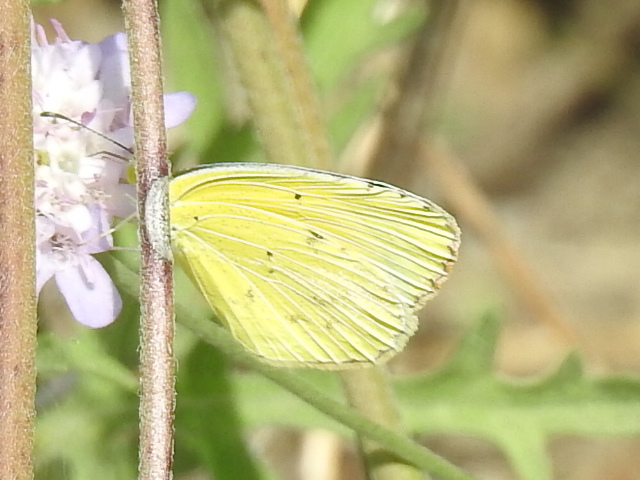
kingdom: Animalia
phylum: Arthropoda
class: Insecta
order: Lepidoptera
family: Pieridae
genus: Pyrisitia
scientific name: Pyrisitia lisa
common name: Little yellow
